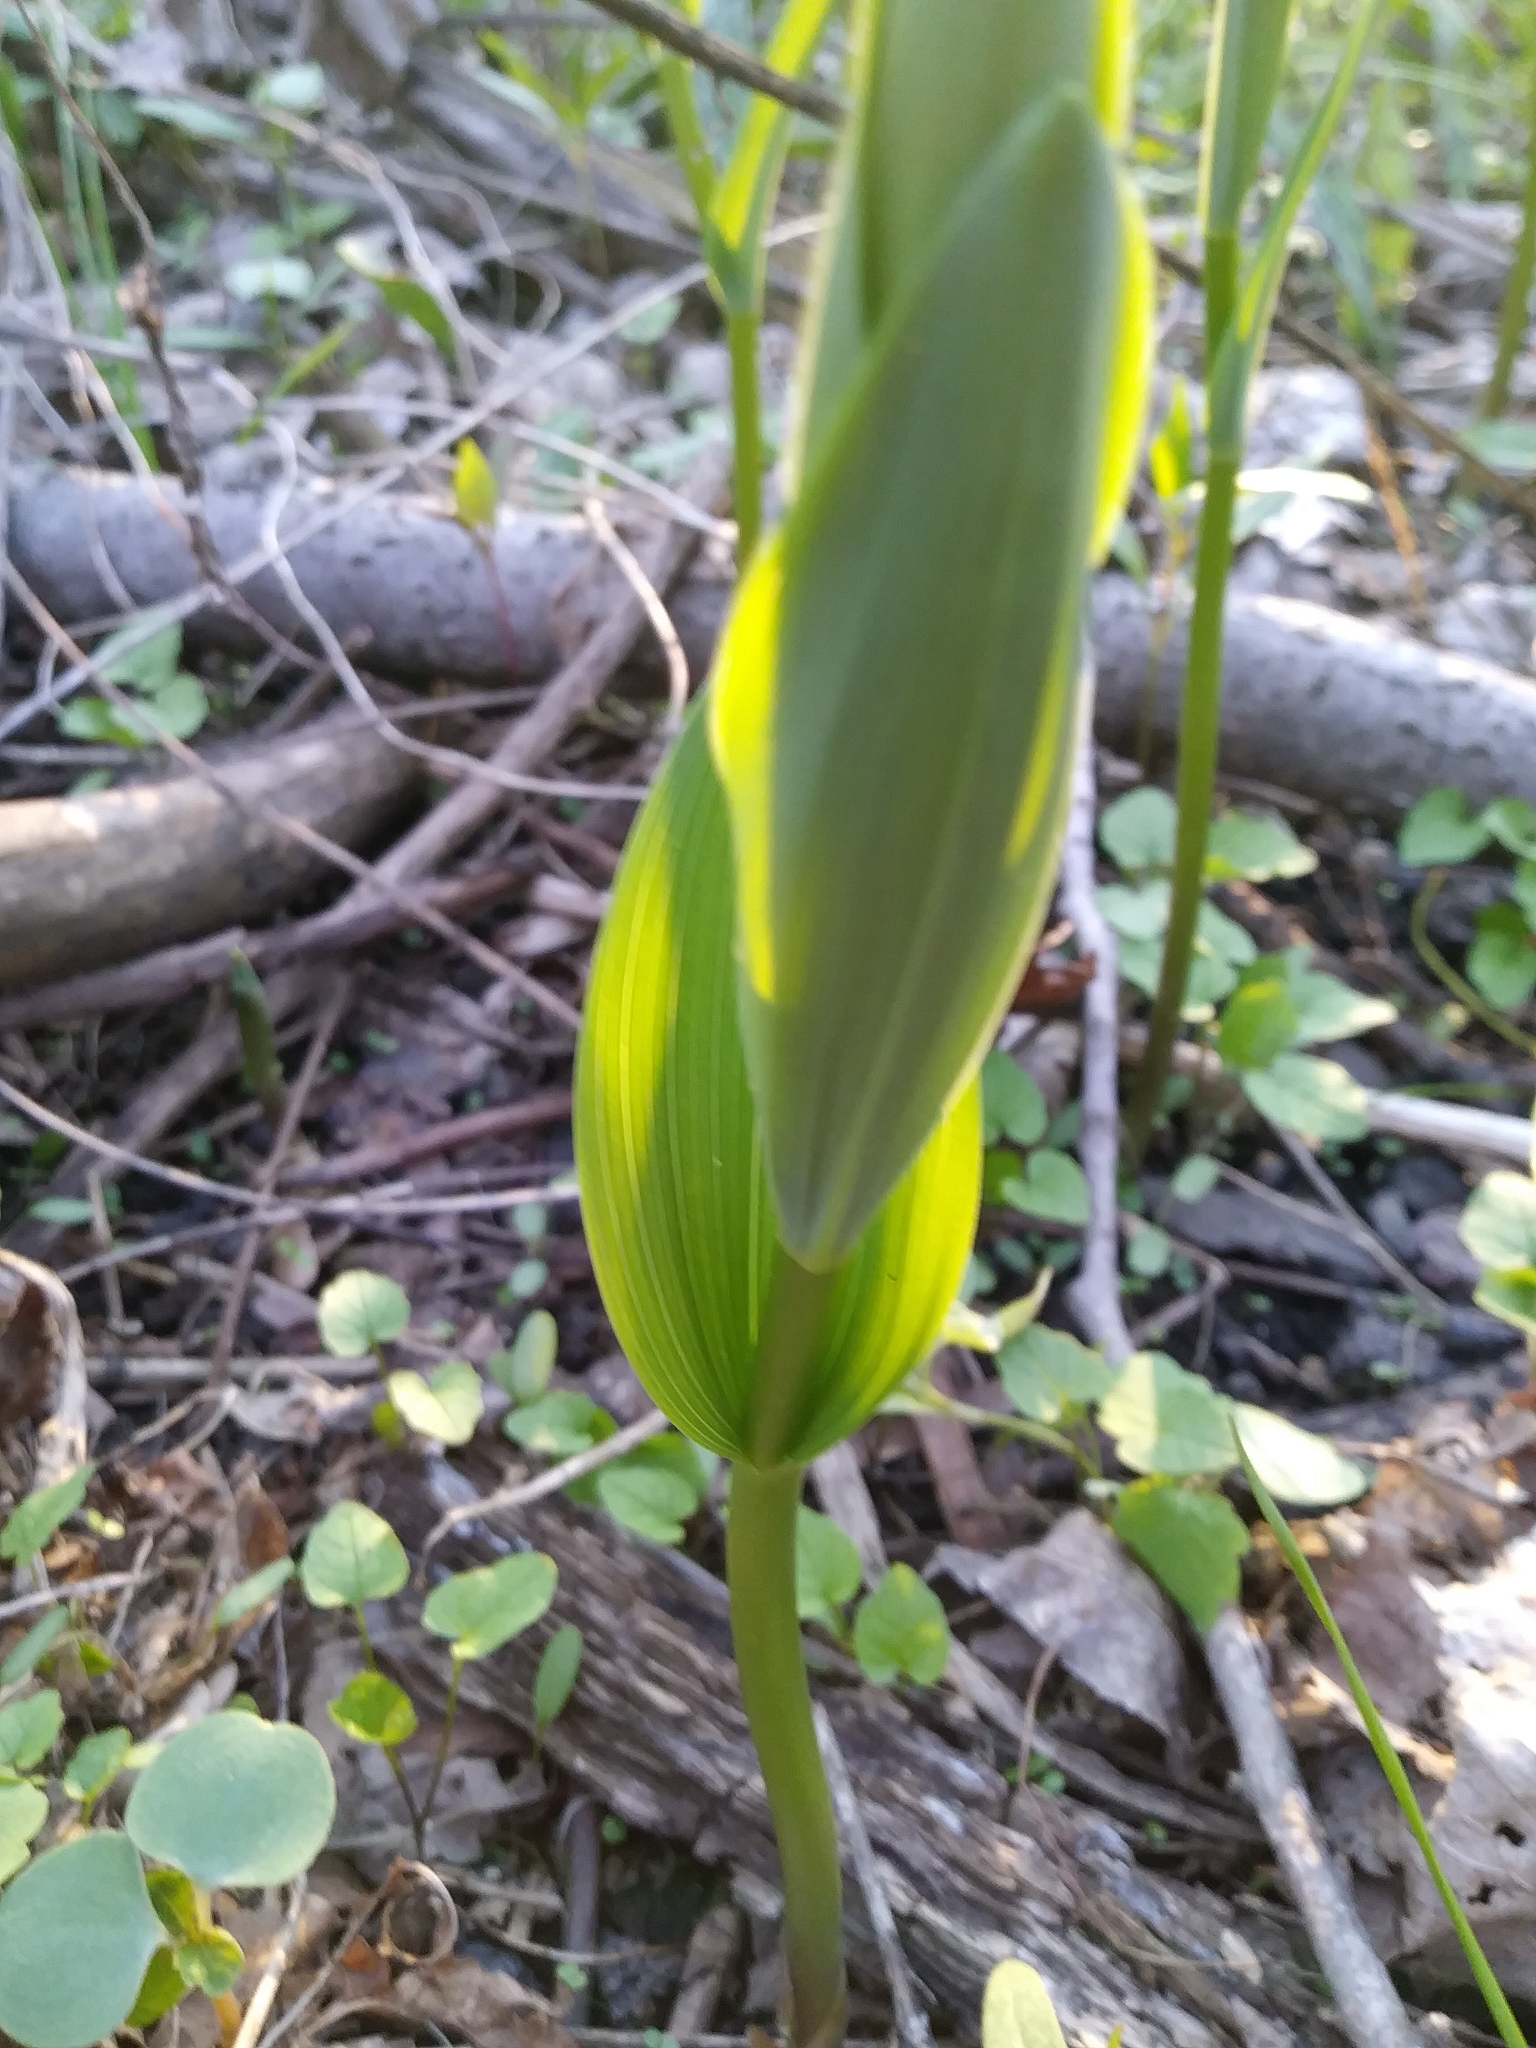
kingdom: Plantae
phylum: Tracheophyta
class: Liliopsida
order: Asparagales
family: Asparagaceae
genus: Maianthemum
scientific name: Maianthemum stellatum
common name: Little false solomon's seal
